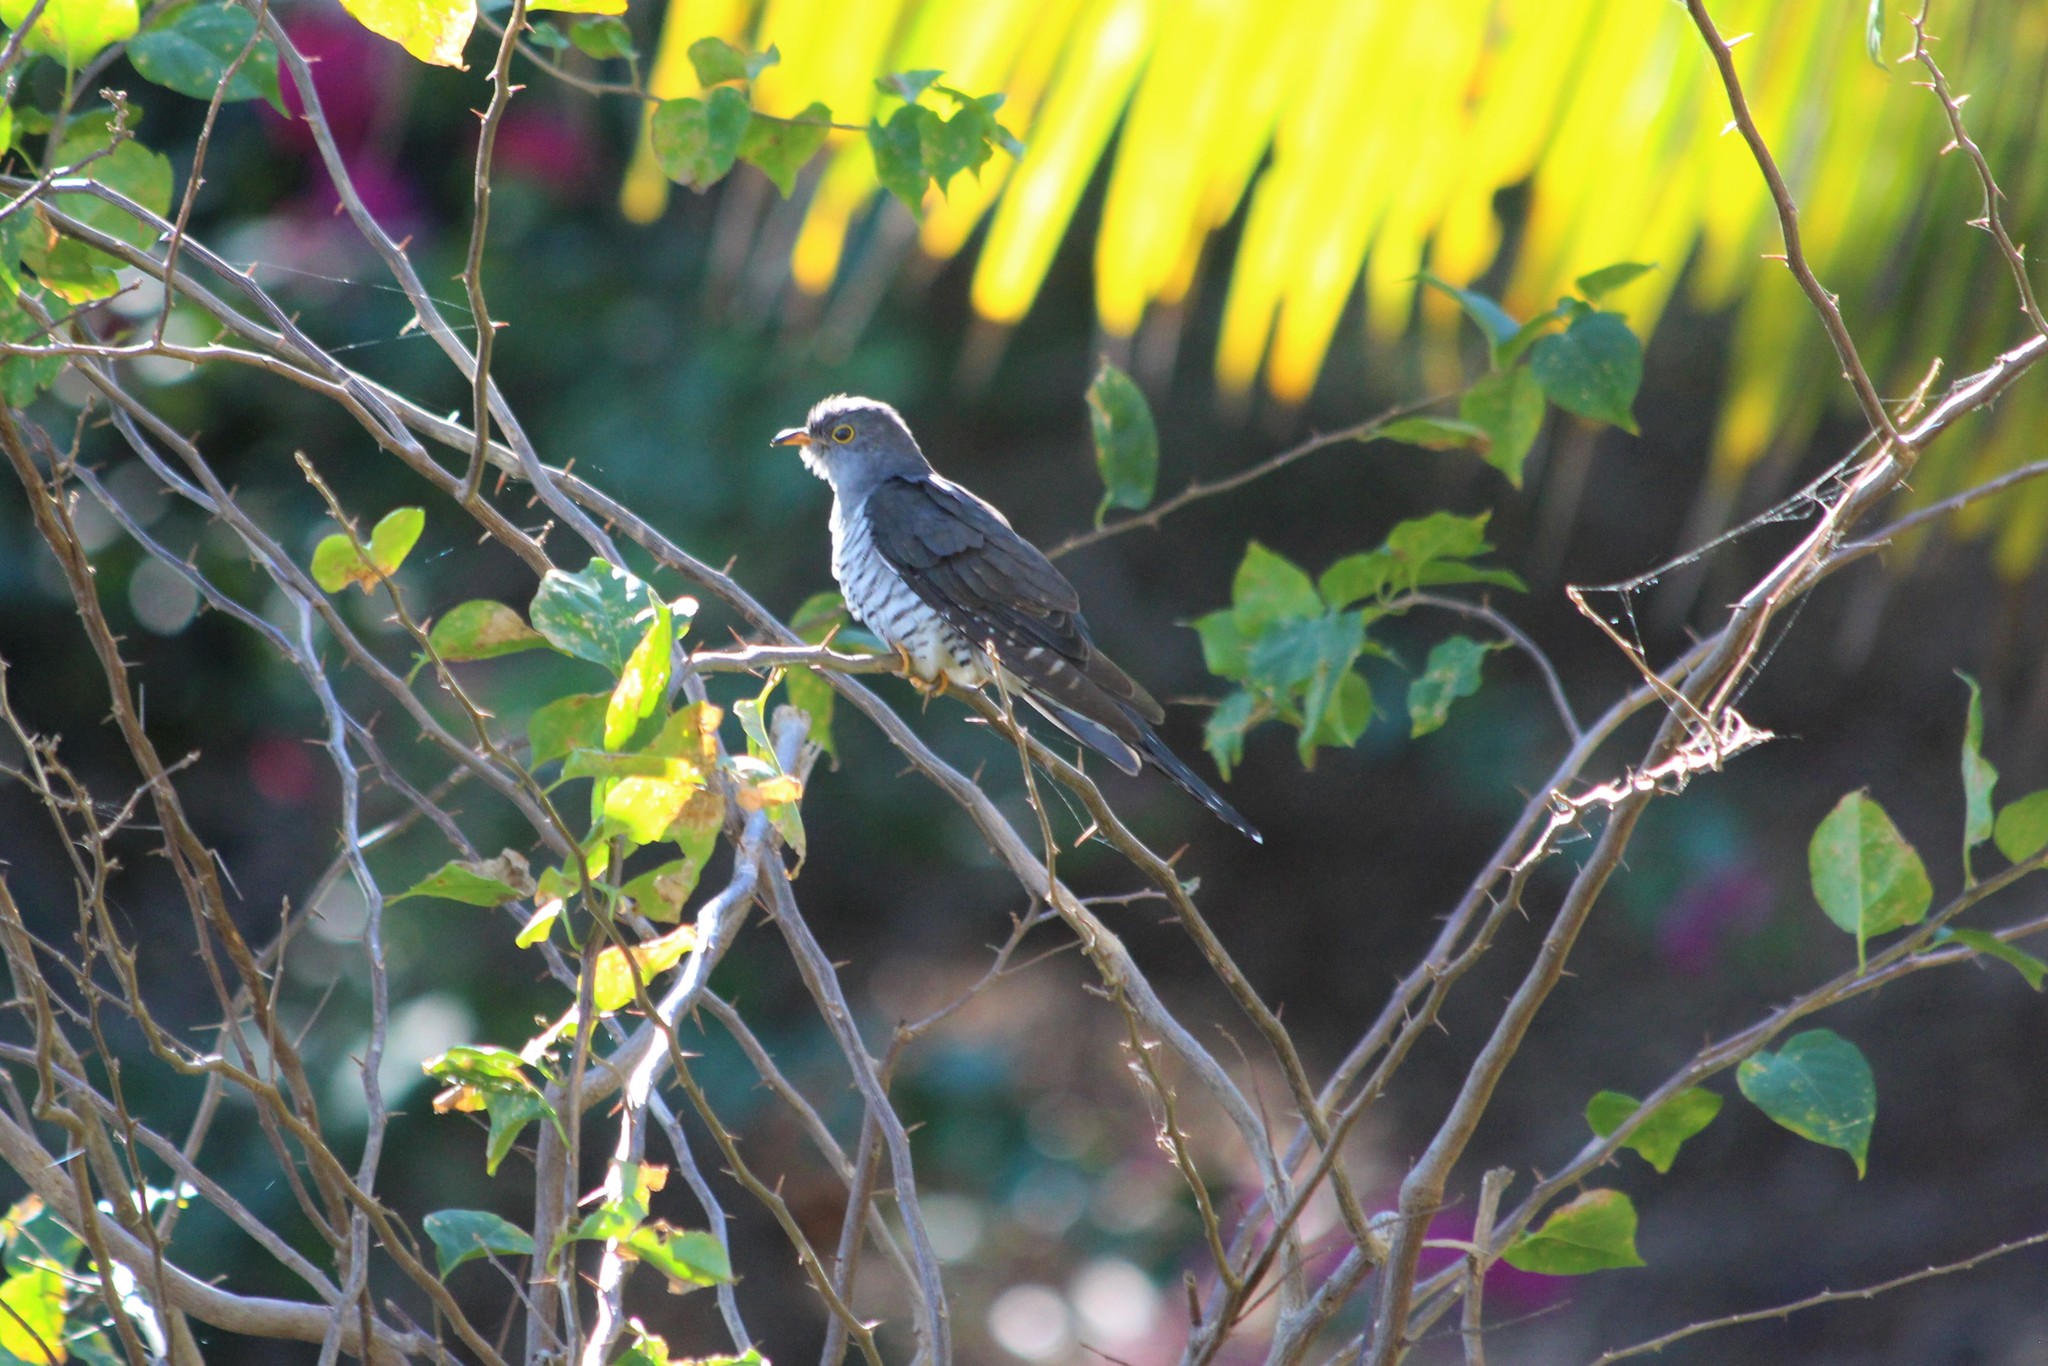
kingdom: Animalia
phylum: Chordata
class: Aves
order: Cuculiformes
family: Cuculidae
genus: Cuculus
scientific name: Cuculus rochii
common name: Madagascar cuckoo
